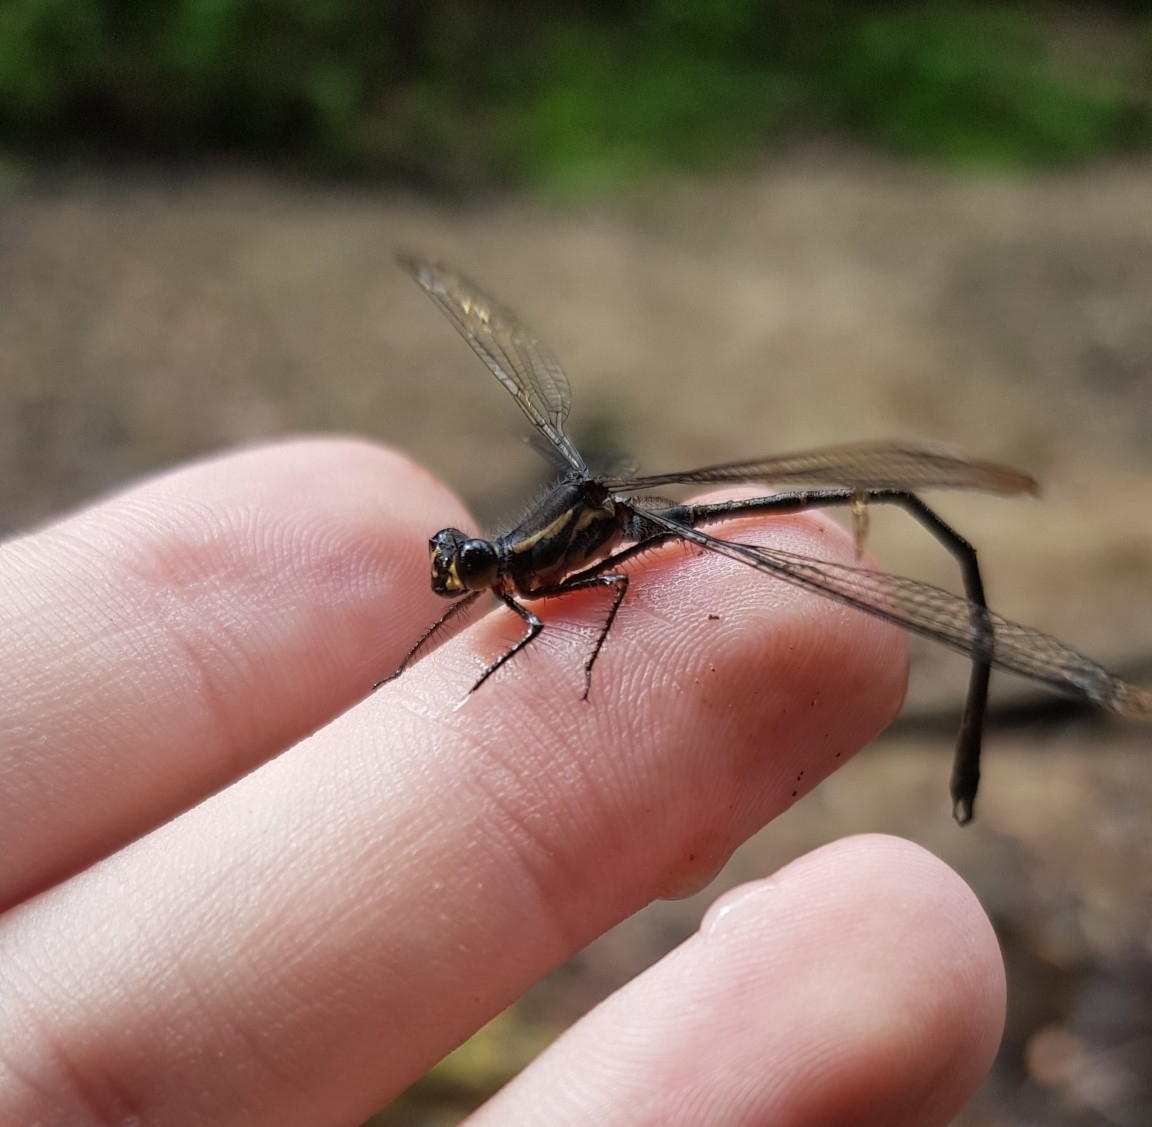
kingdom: Animalia
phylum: Arthropoda
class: Insecta
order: Odonata
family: Argiolestidae
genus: Austroargiolestes
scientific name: Austroargiolestes icteromelas
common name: Common flatwing
